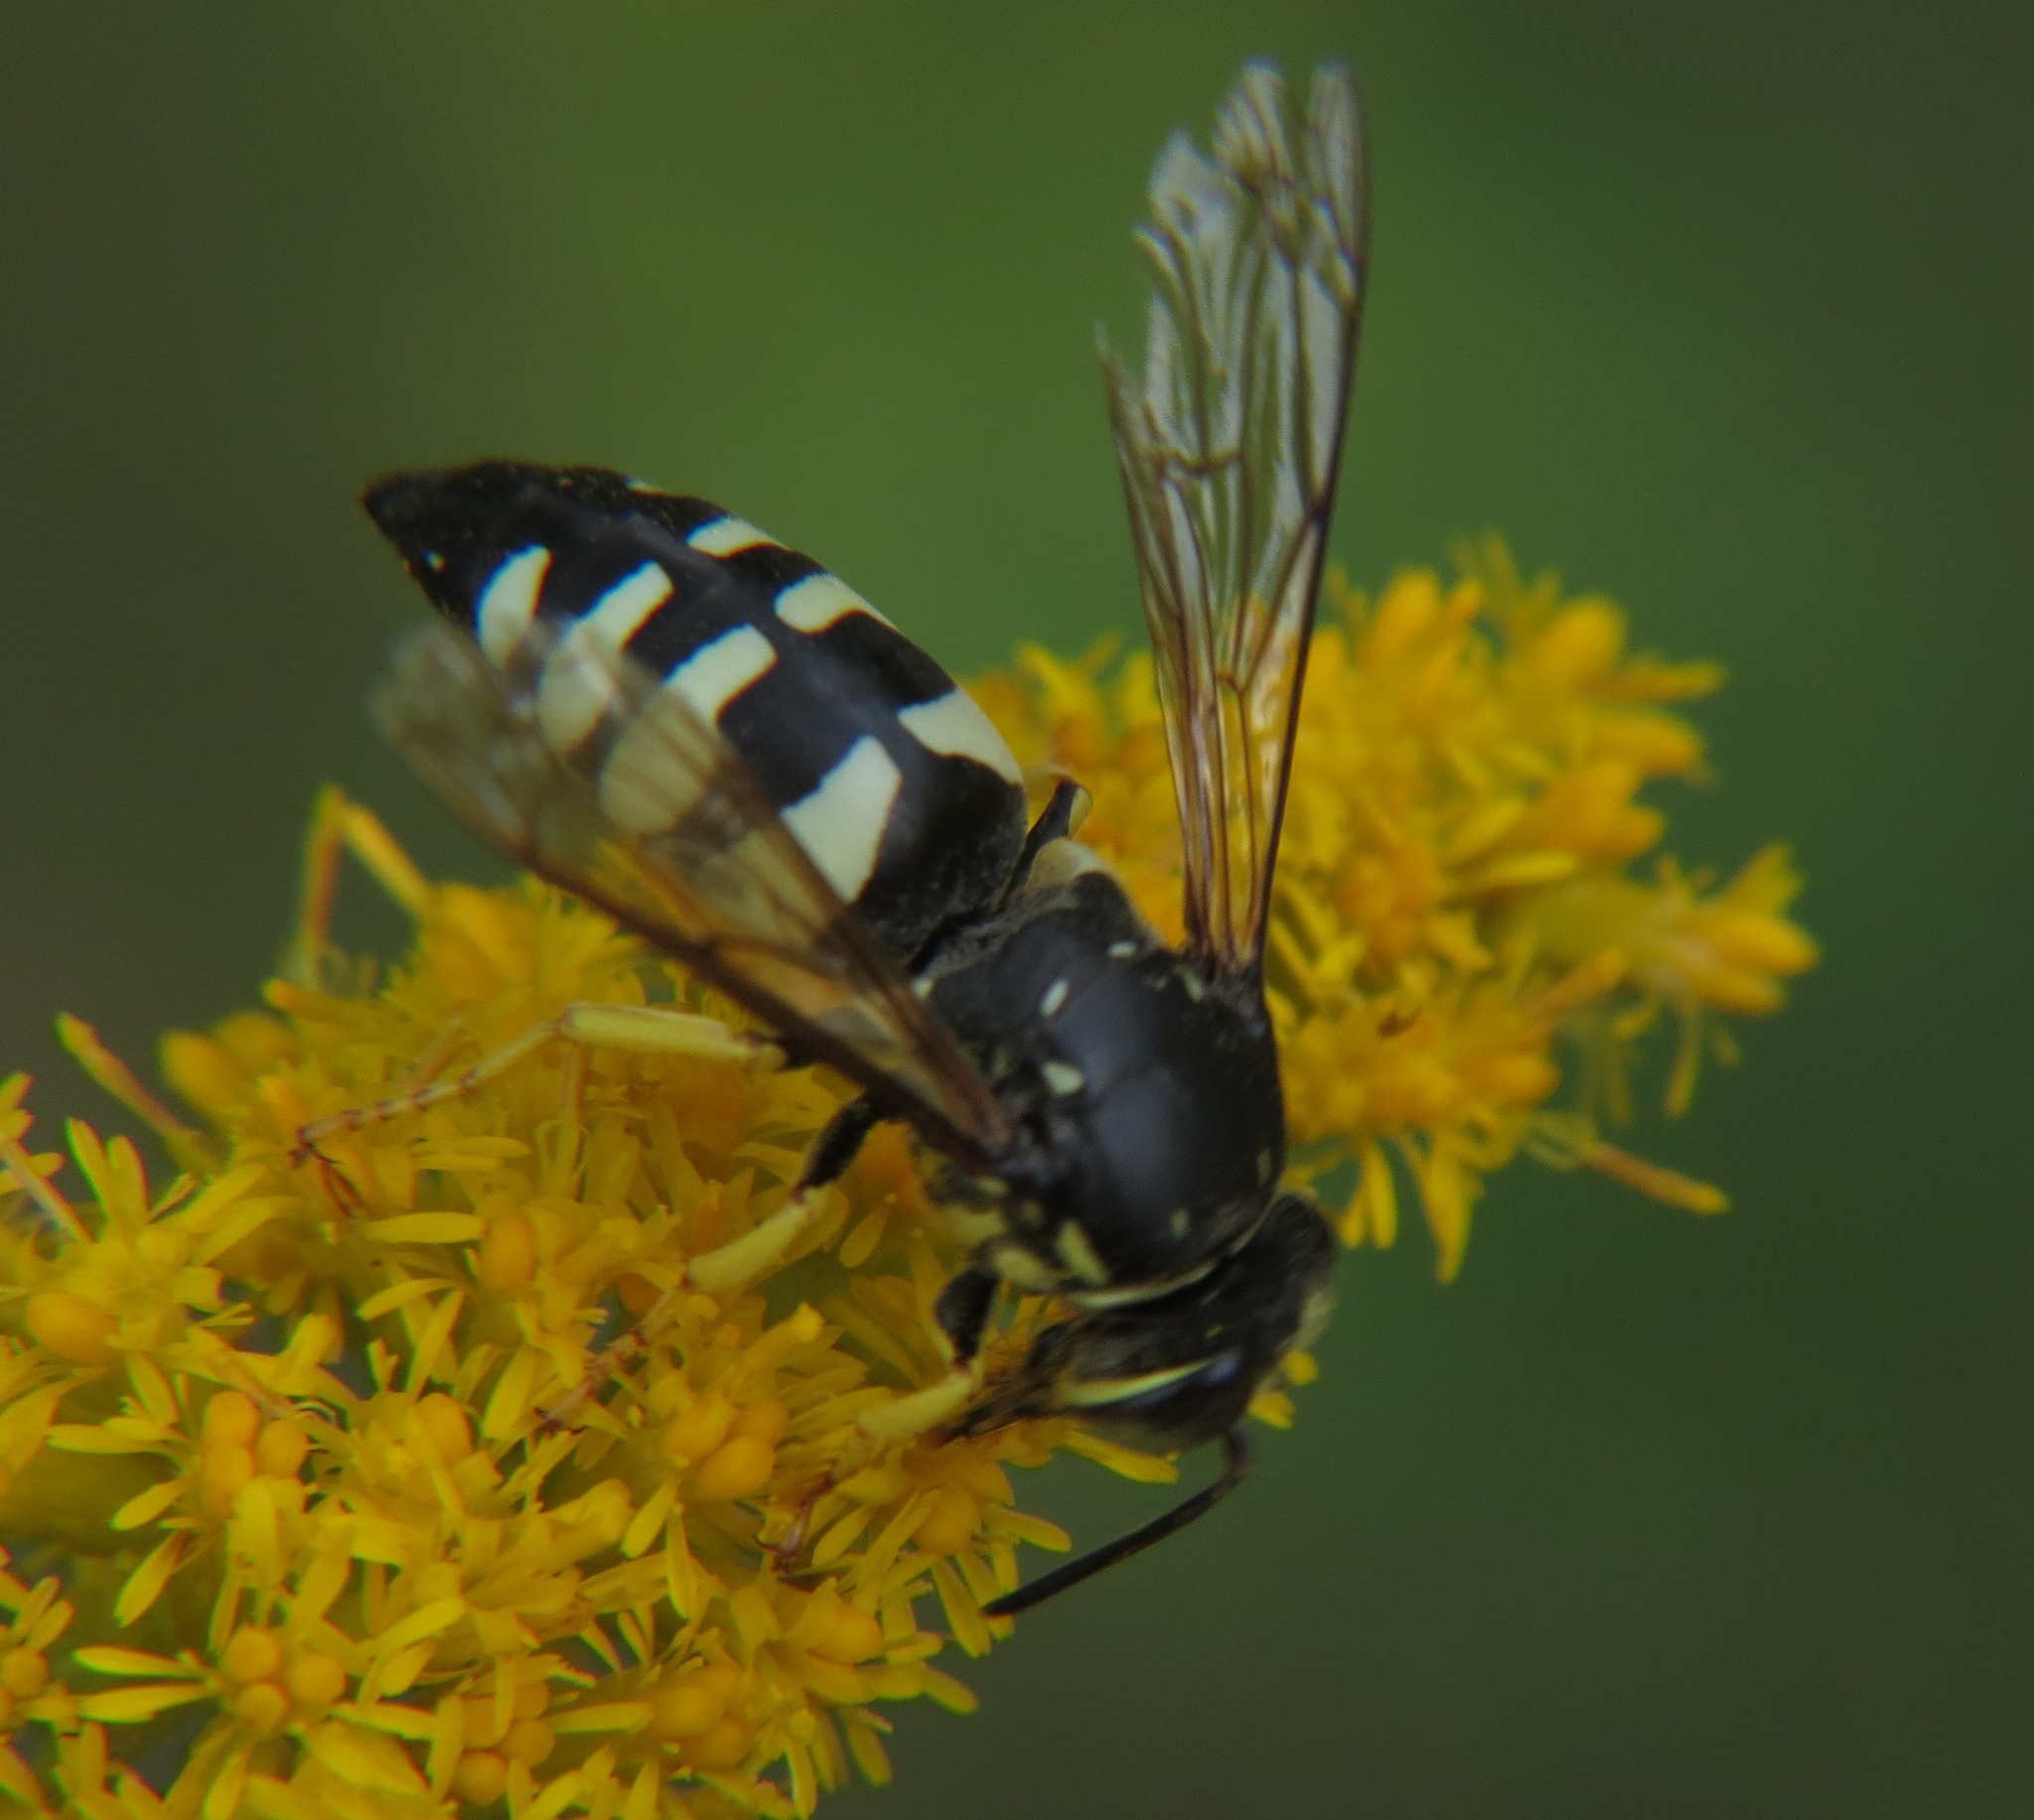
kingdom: Animalia
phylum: Arthropoda
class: Insecta
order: Hymenoptera
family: Crabronidae
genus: Bicyrtes
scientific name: Bicyrtes quadrifasciatus
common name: Four-banded stink bug hunter wasp
